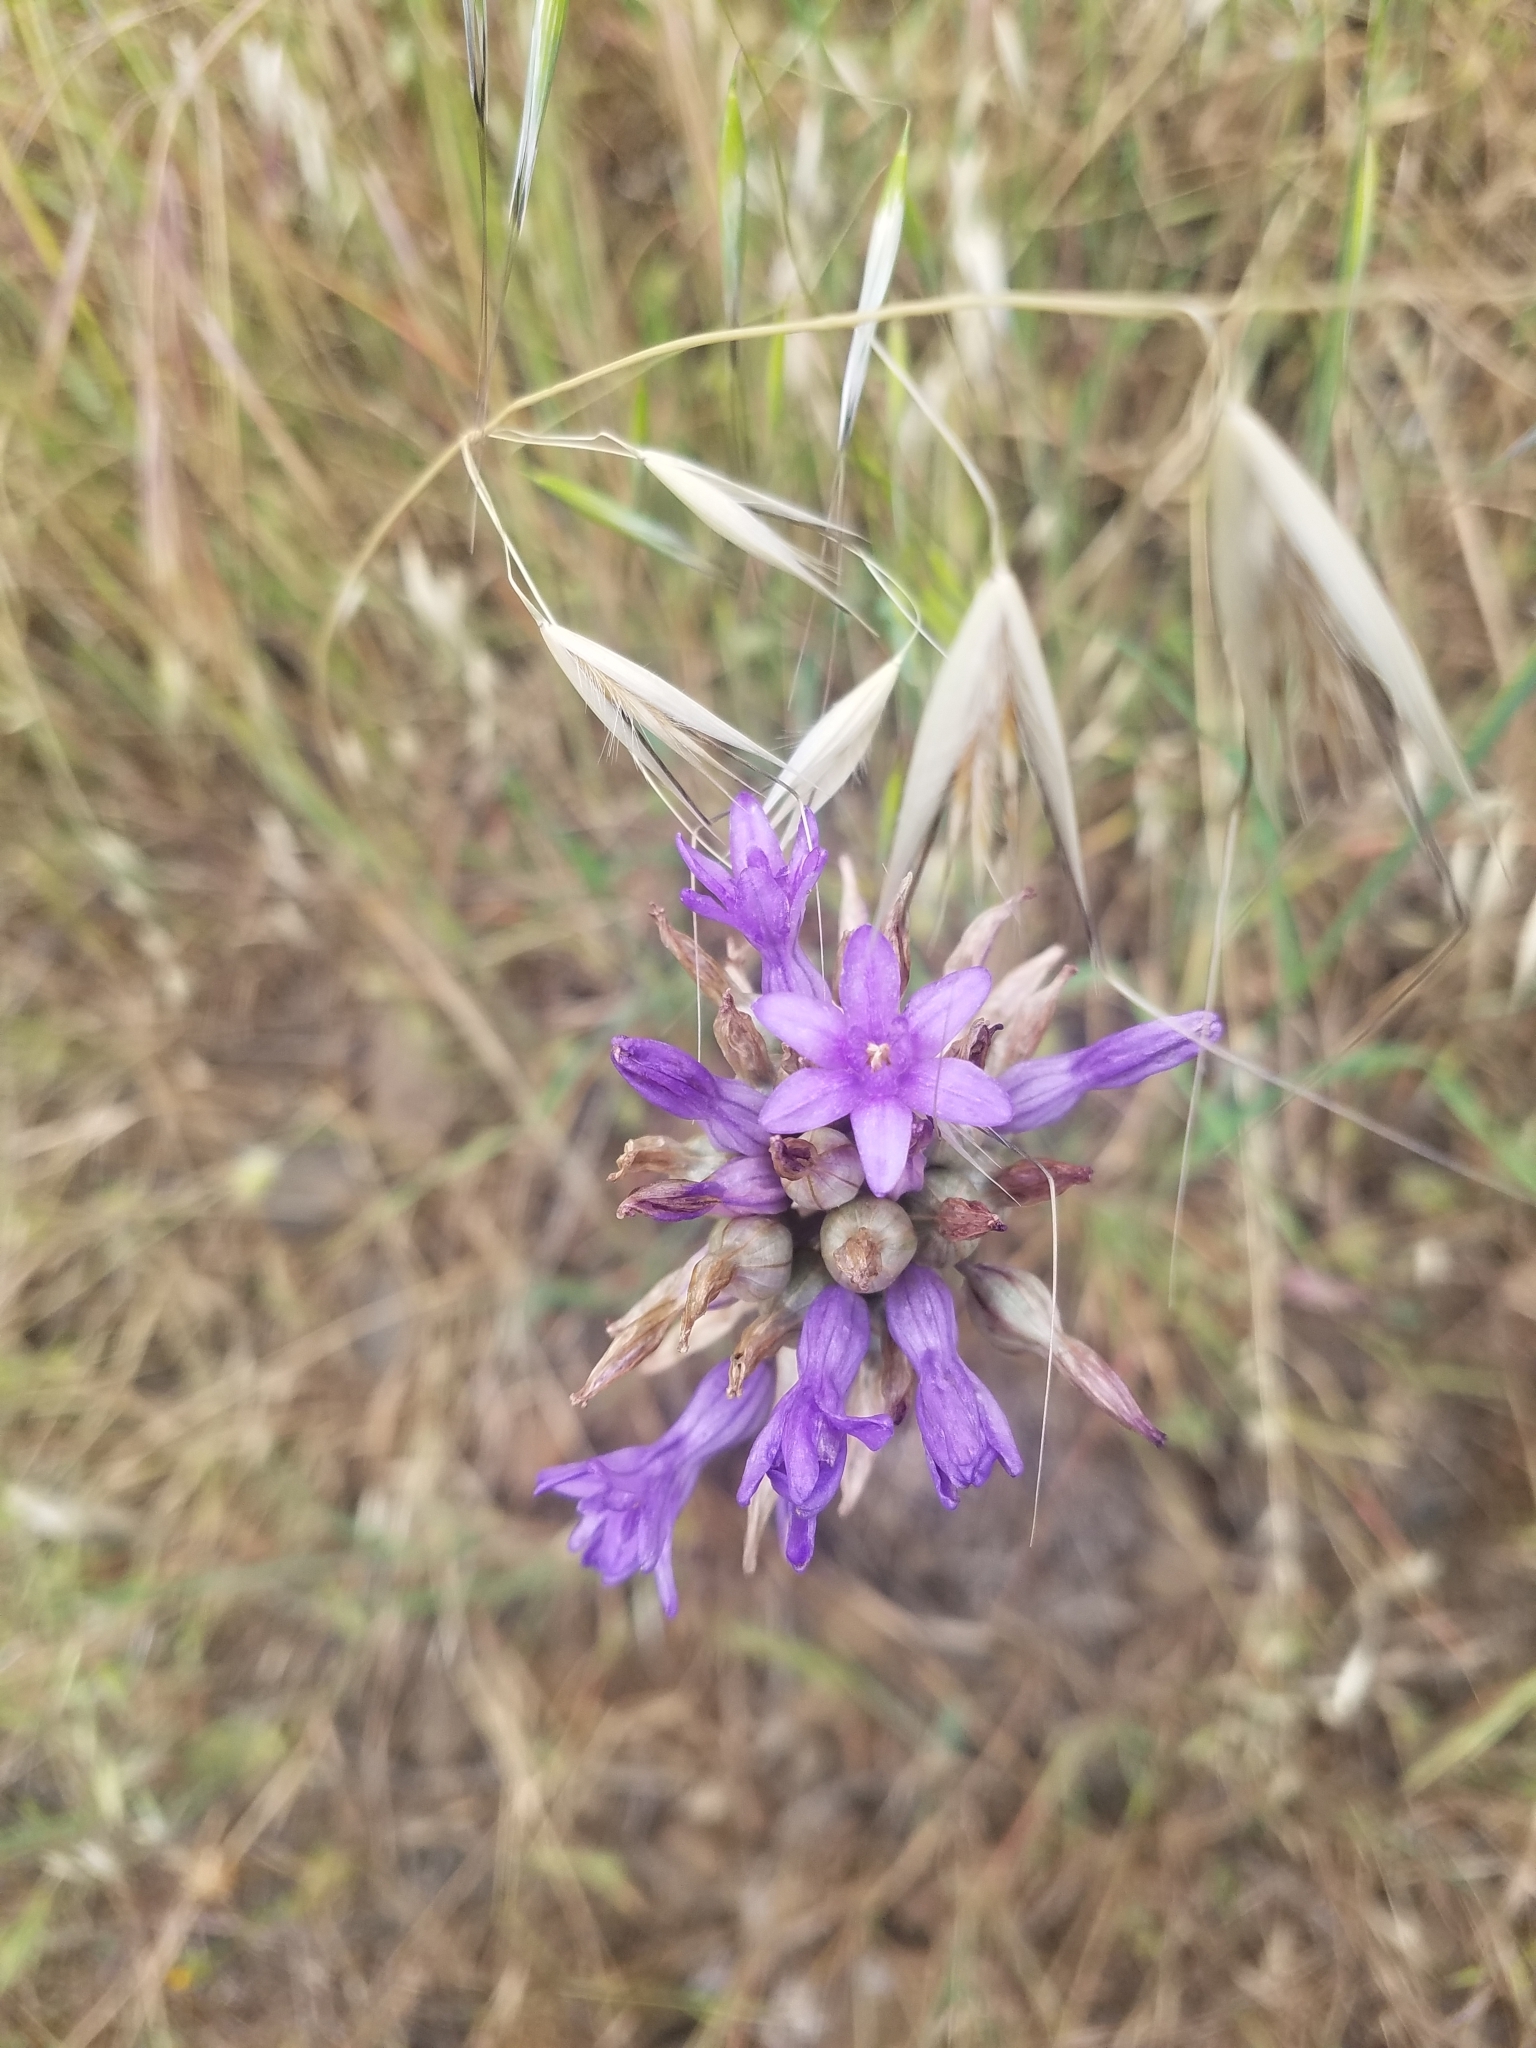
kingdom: Plantae
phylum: Tracheophyta
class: Liliopsida
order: Asparagales
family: Asparagaceae
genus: Dichelostemma
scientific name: Dichelostemma multiflorum
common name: Round-tooth ookow
